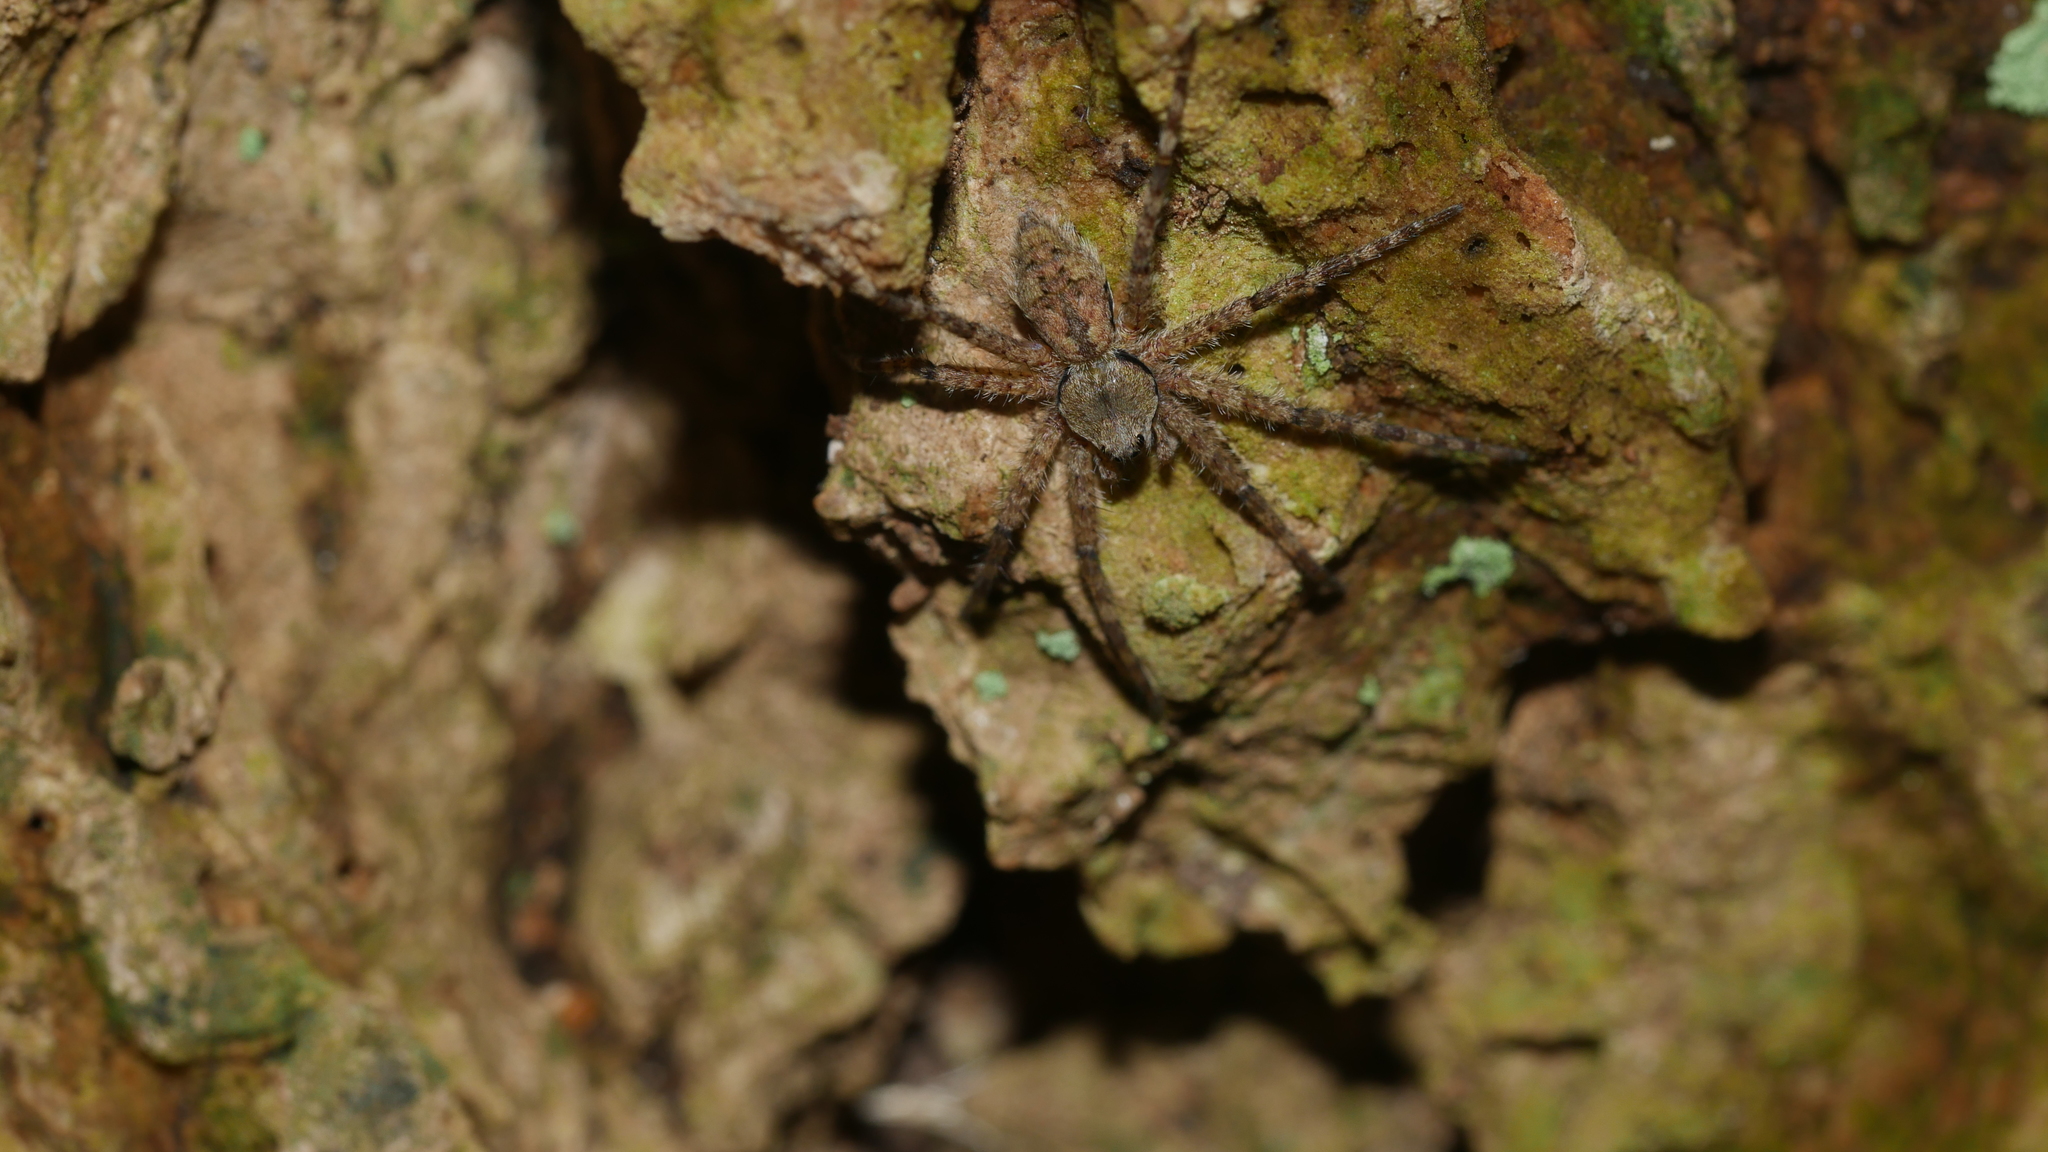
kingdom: Animalia
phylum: Arthropoda
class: Arachnida
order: Araneae
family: Pisauridae
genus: Dolomedes
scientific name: Dolomedes albineus
